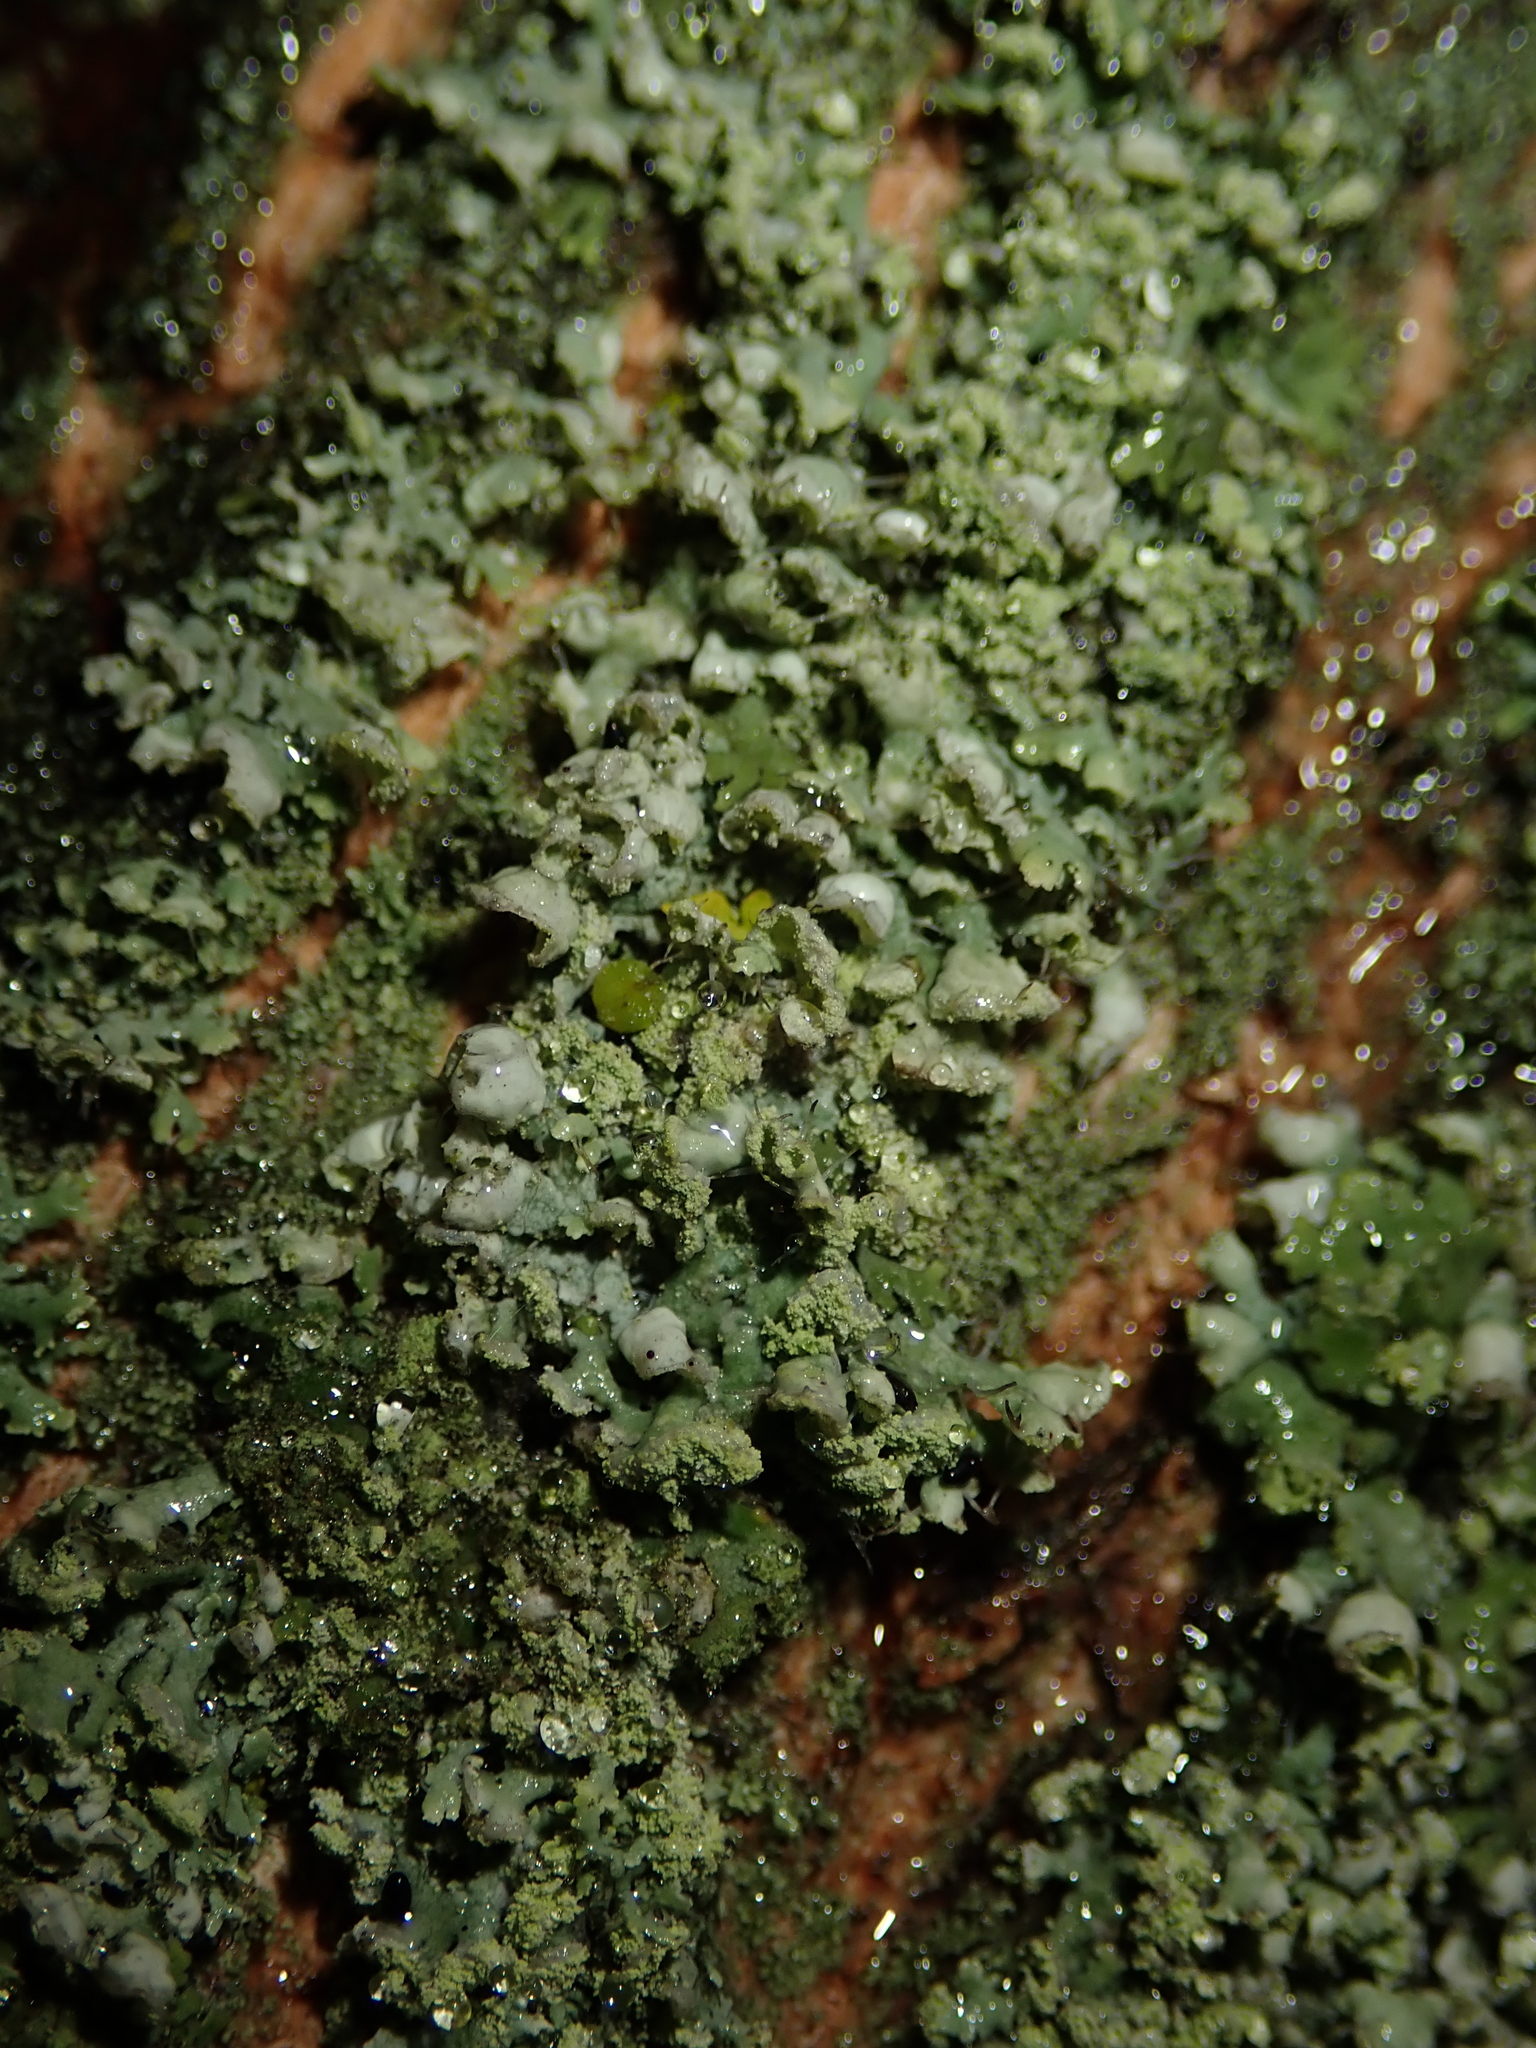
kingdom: Fungi
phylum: Ascomycota
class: Lecanoromycetes
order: Caliciales
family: Physciaceae
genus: Physcia
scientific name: Physcia adscendens
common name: Hooded rosette lichen
